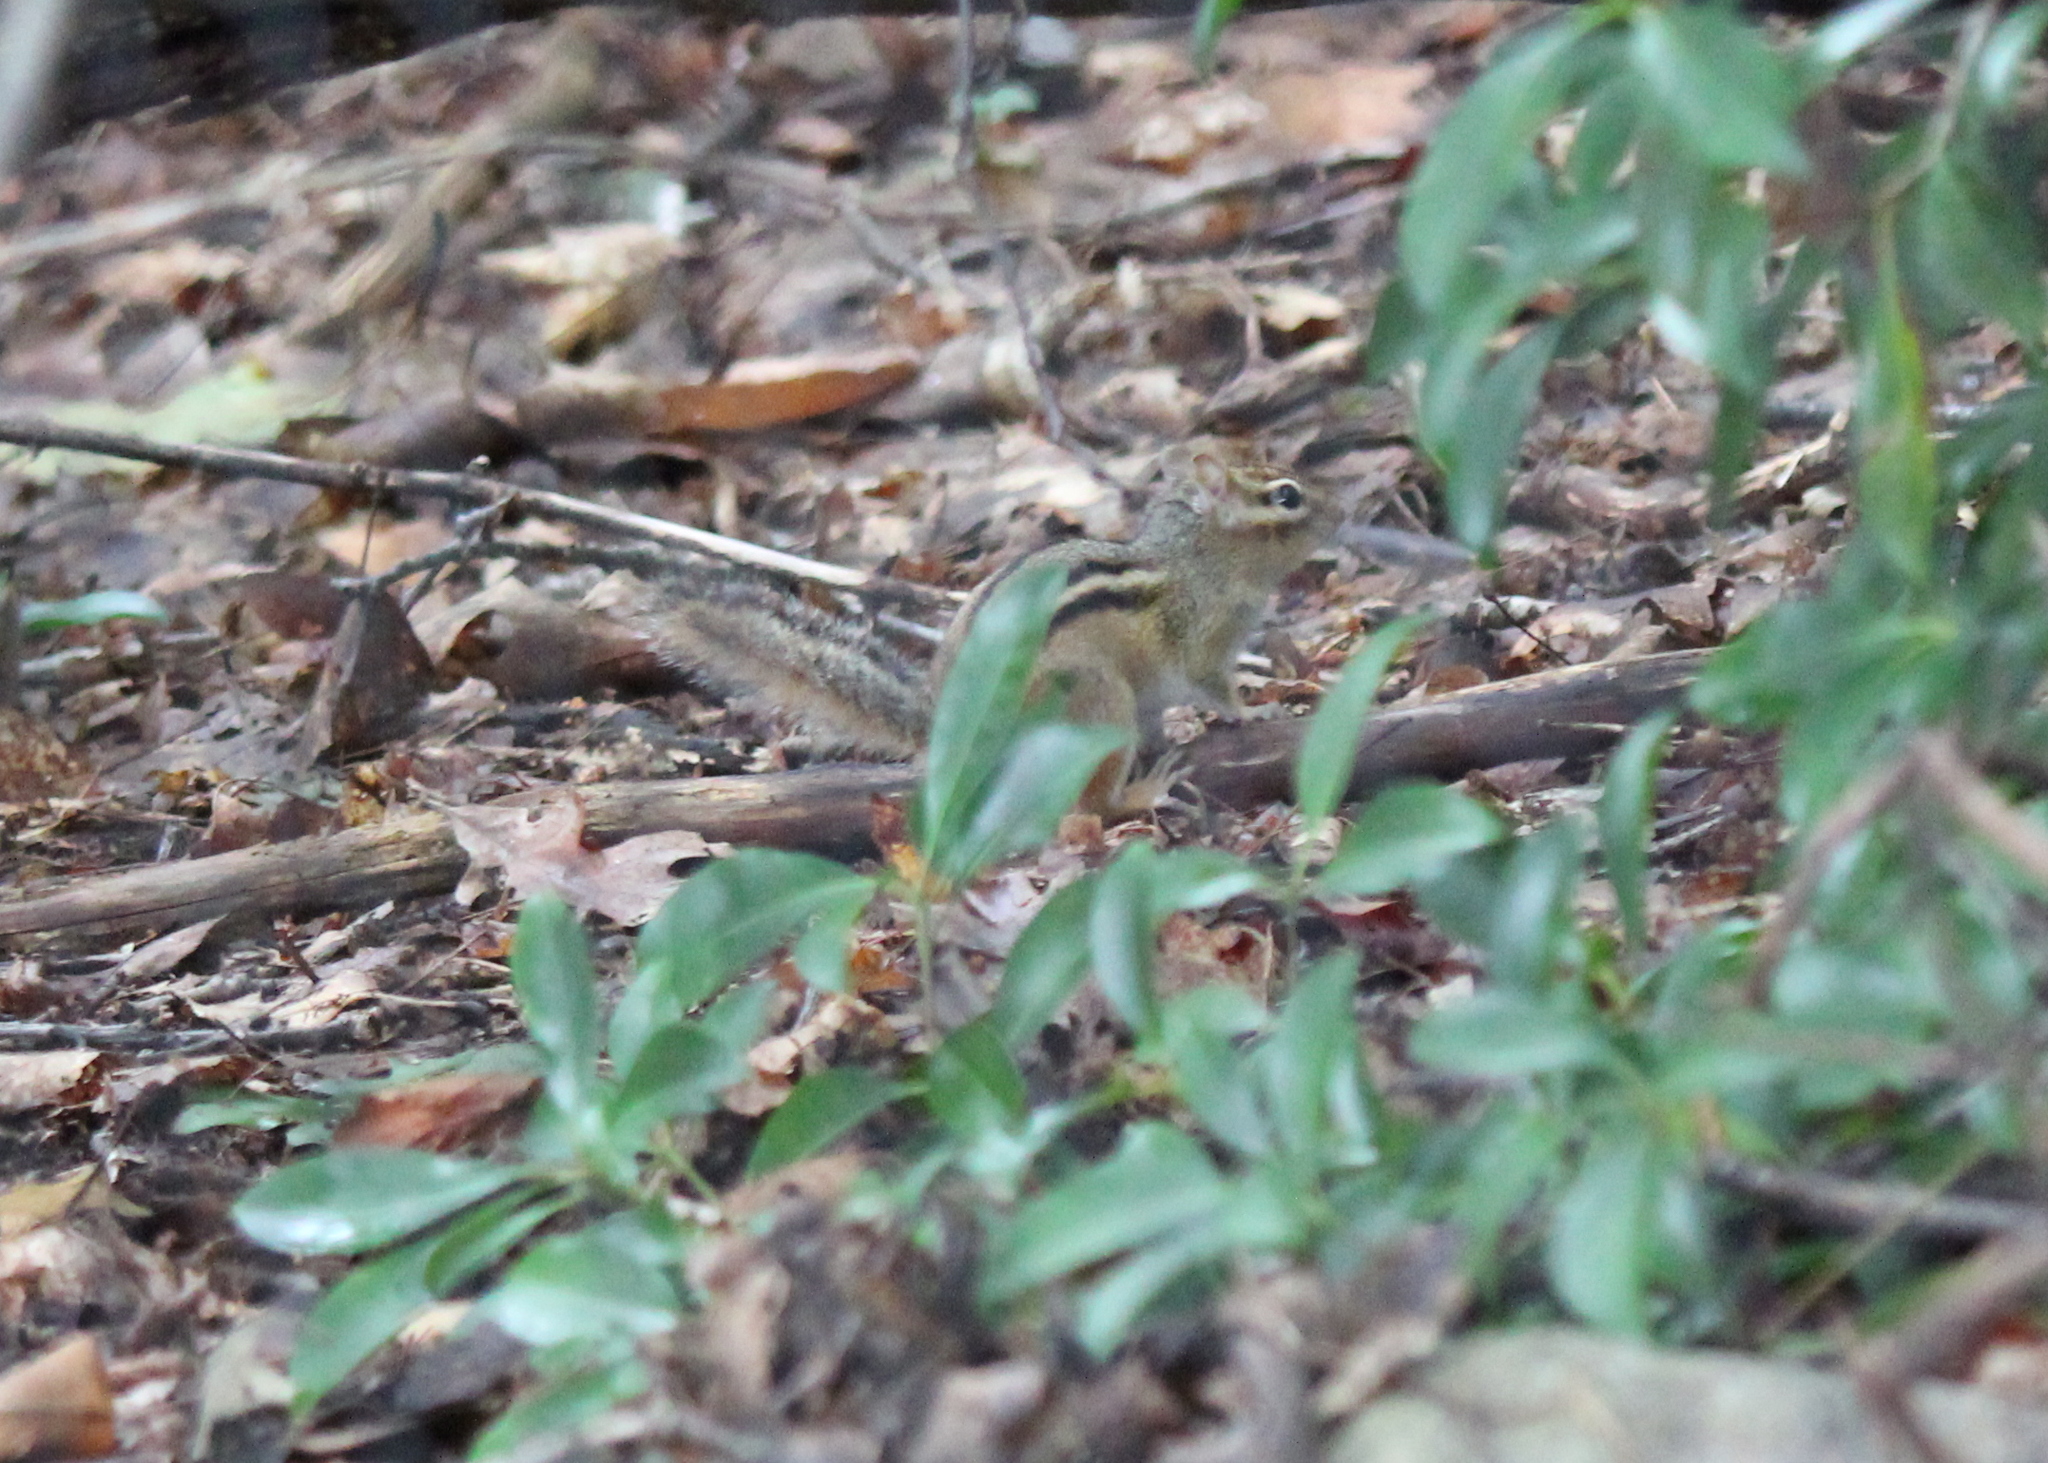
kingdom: Animalia
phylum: Chordata
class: Mammalia
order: Rodentia
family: Sciuridae
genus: Tamias
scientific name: Tamias striatus
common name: Eastern chipmunk
